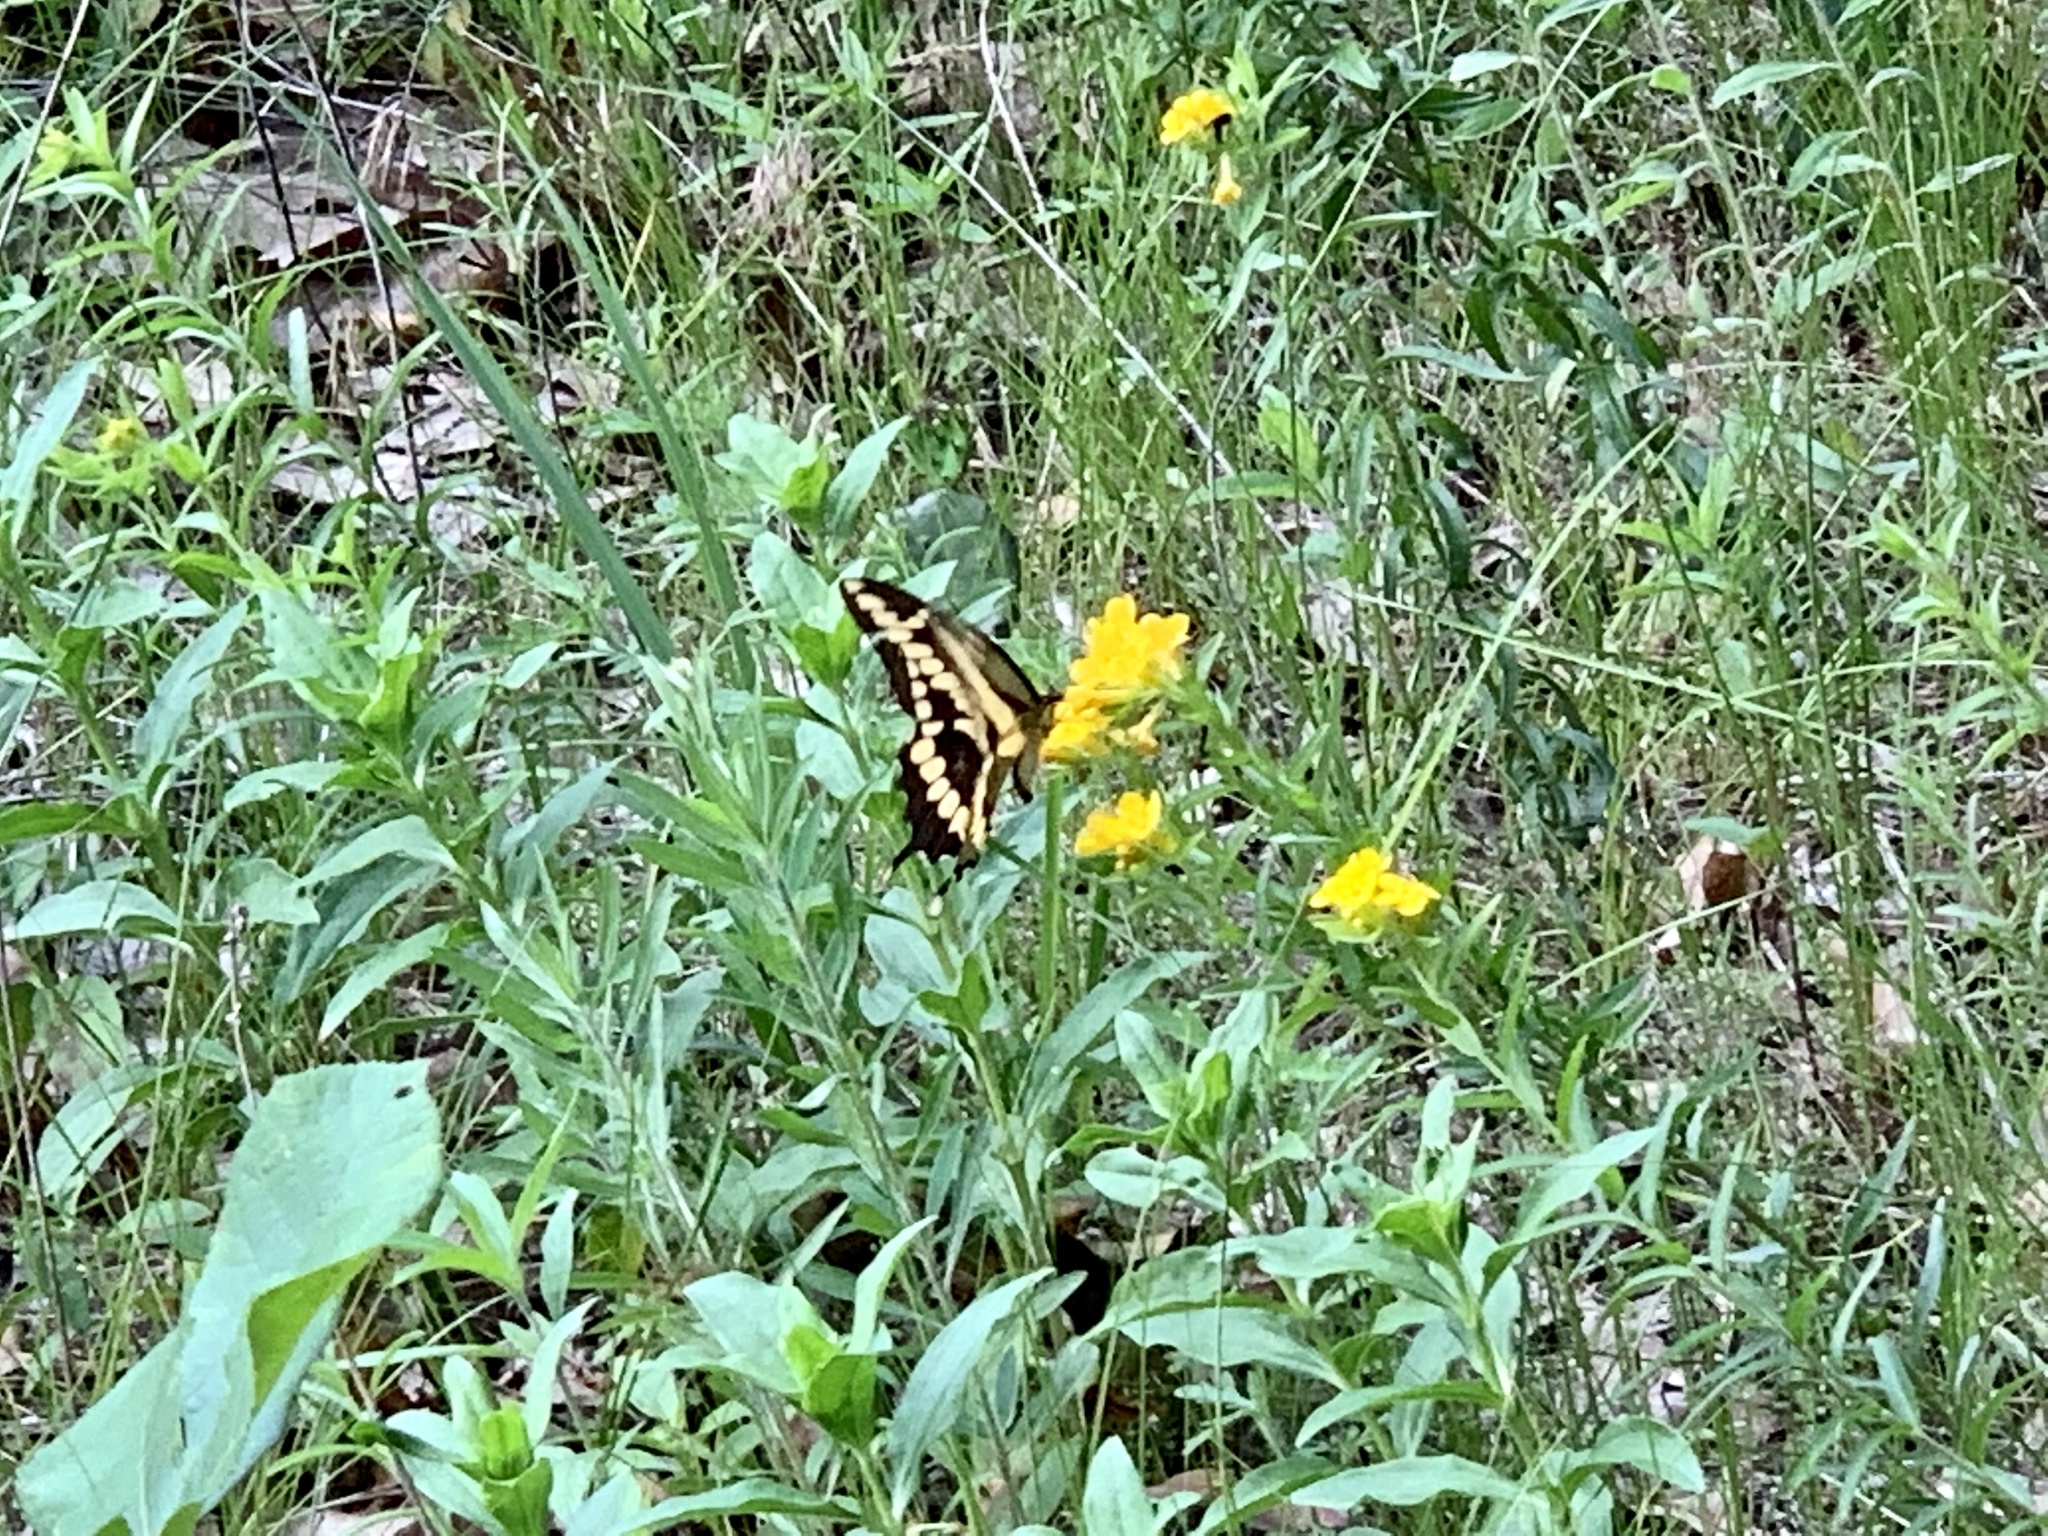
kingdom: Animalia
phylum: Arthropoda
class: Insecta
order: Lepidoptera
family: Papilionidae
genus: Papilio
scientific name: Papilio cresphontes
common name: Giant swallowtail
